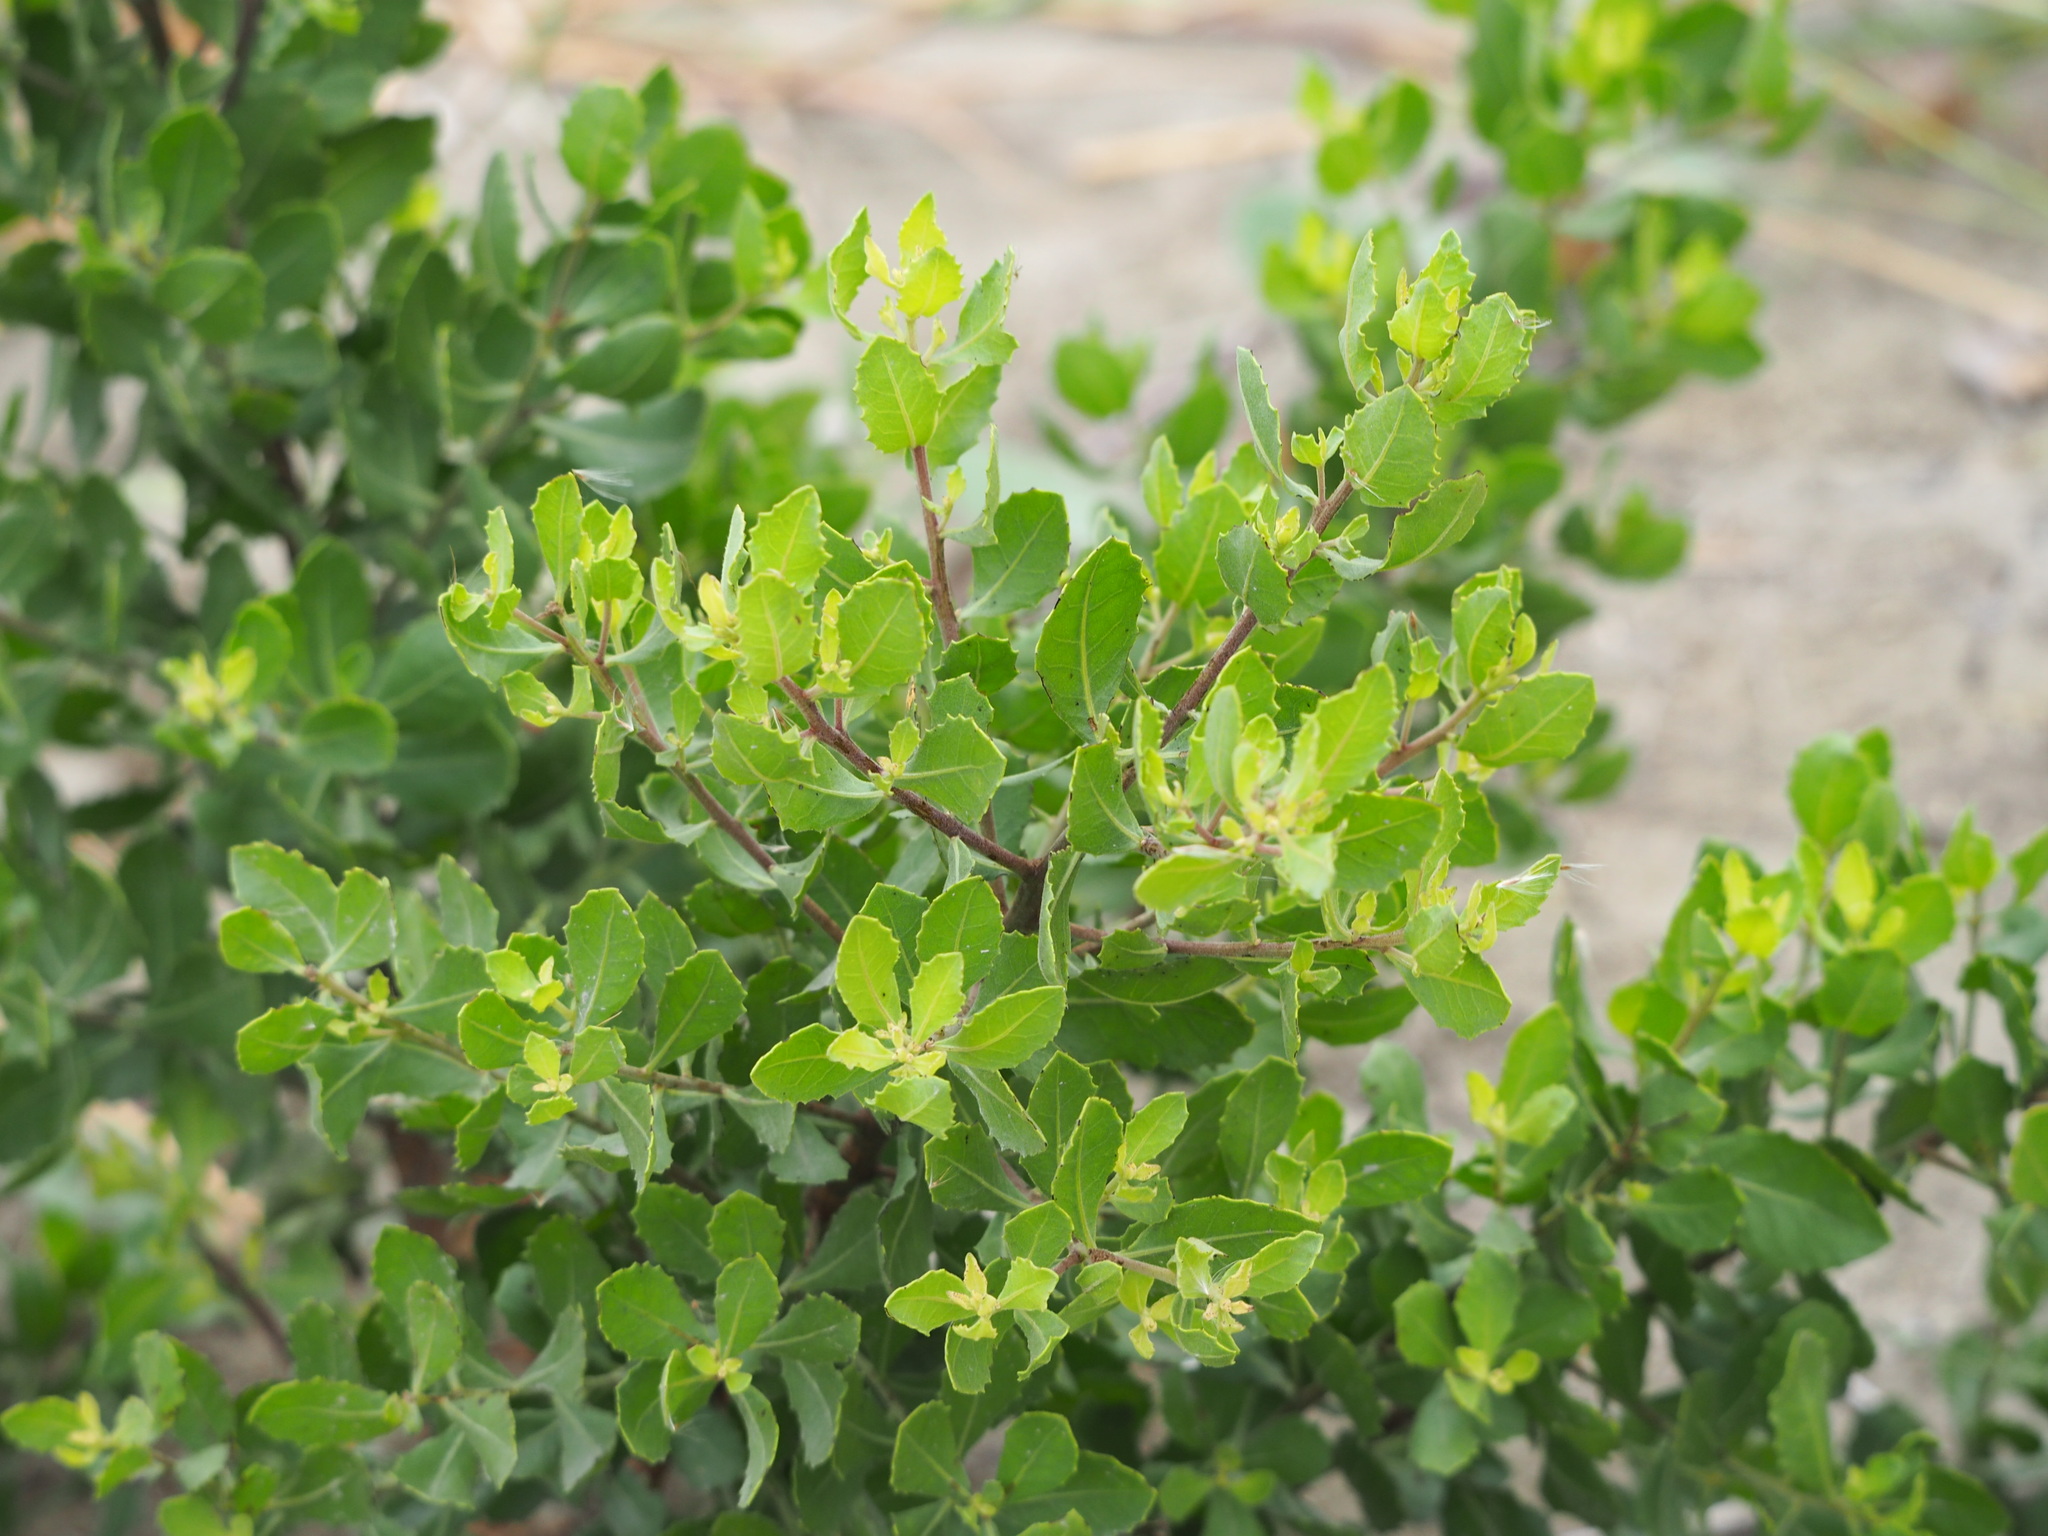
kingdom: Plantae
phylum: Tracheophyta
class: Magnoliopsida
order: Asterales
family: Asteraceae
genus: Pluchea
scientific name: Pluchea indica
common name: Indian fleabane
